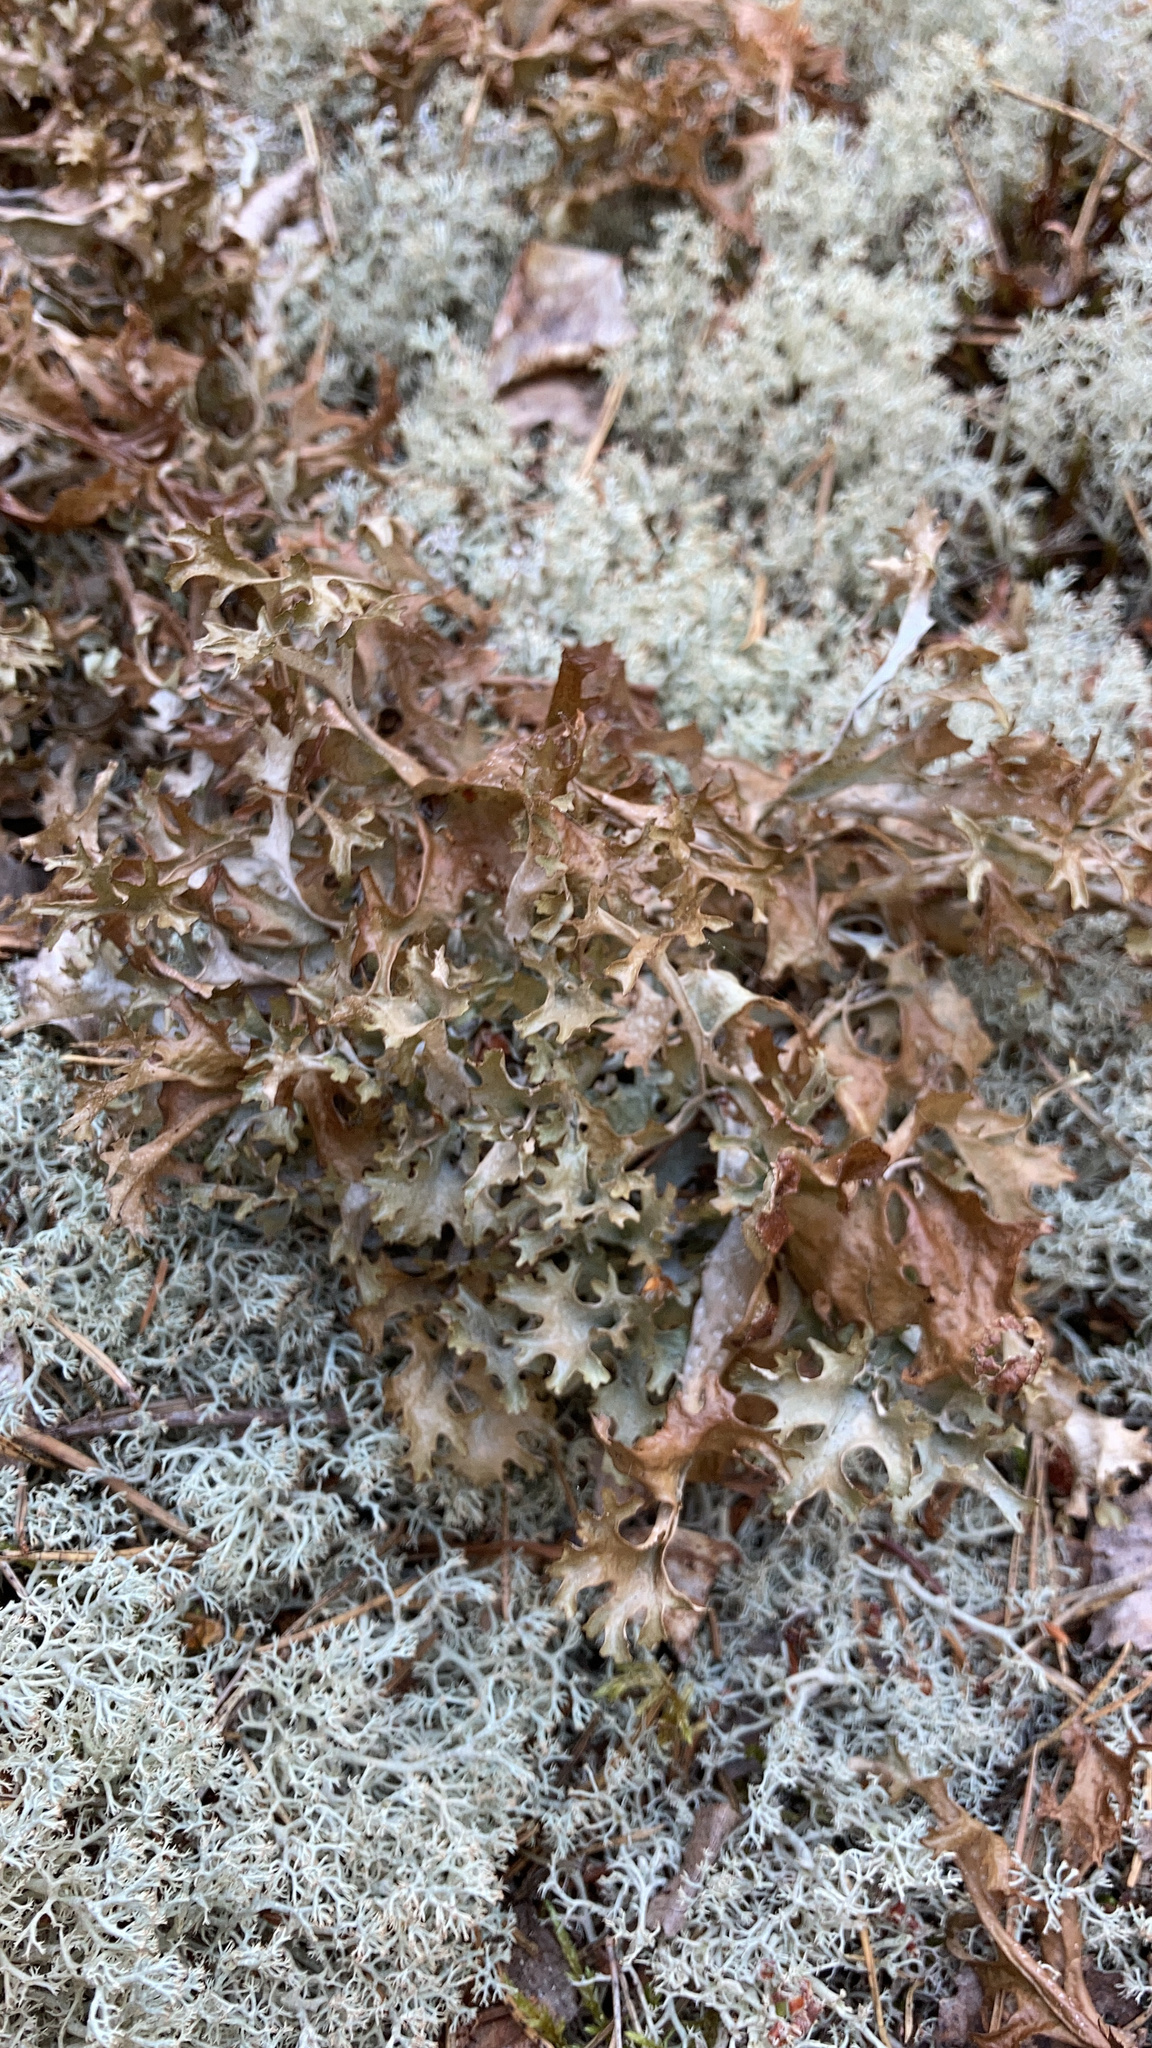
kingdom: Fungi
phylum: Ascomycota
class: Lecanoromycetes
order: Lecanorales
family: Parmeliaceae
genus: Cetraria
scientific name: Cetraria islandica
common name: Iceland lichen
